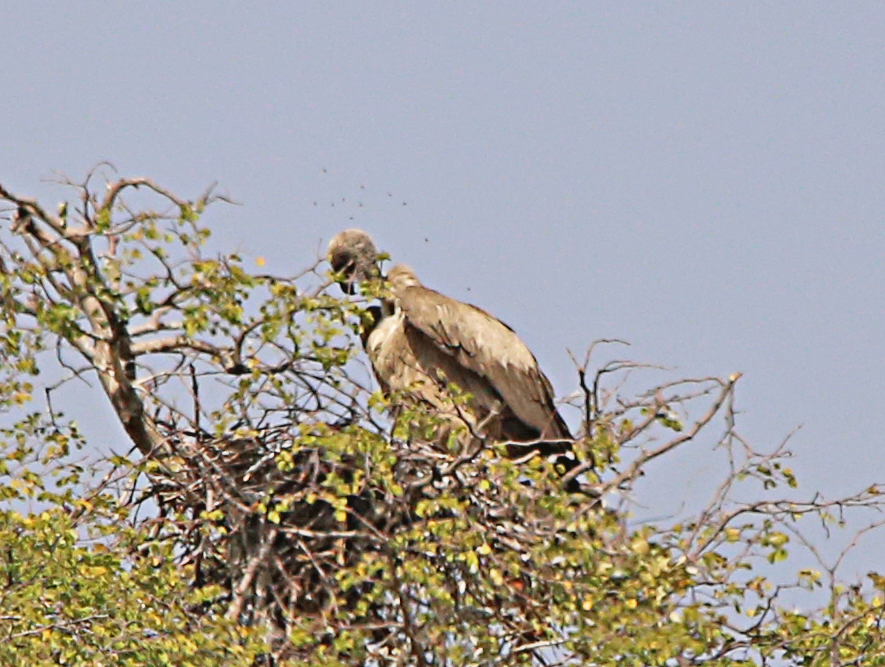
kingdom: Animalia
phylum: Chordata
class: Aves
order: Accipitriformes
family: Accipitridae
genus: Gyps
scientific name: Gyps africanus
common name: White-backed vulture
